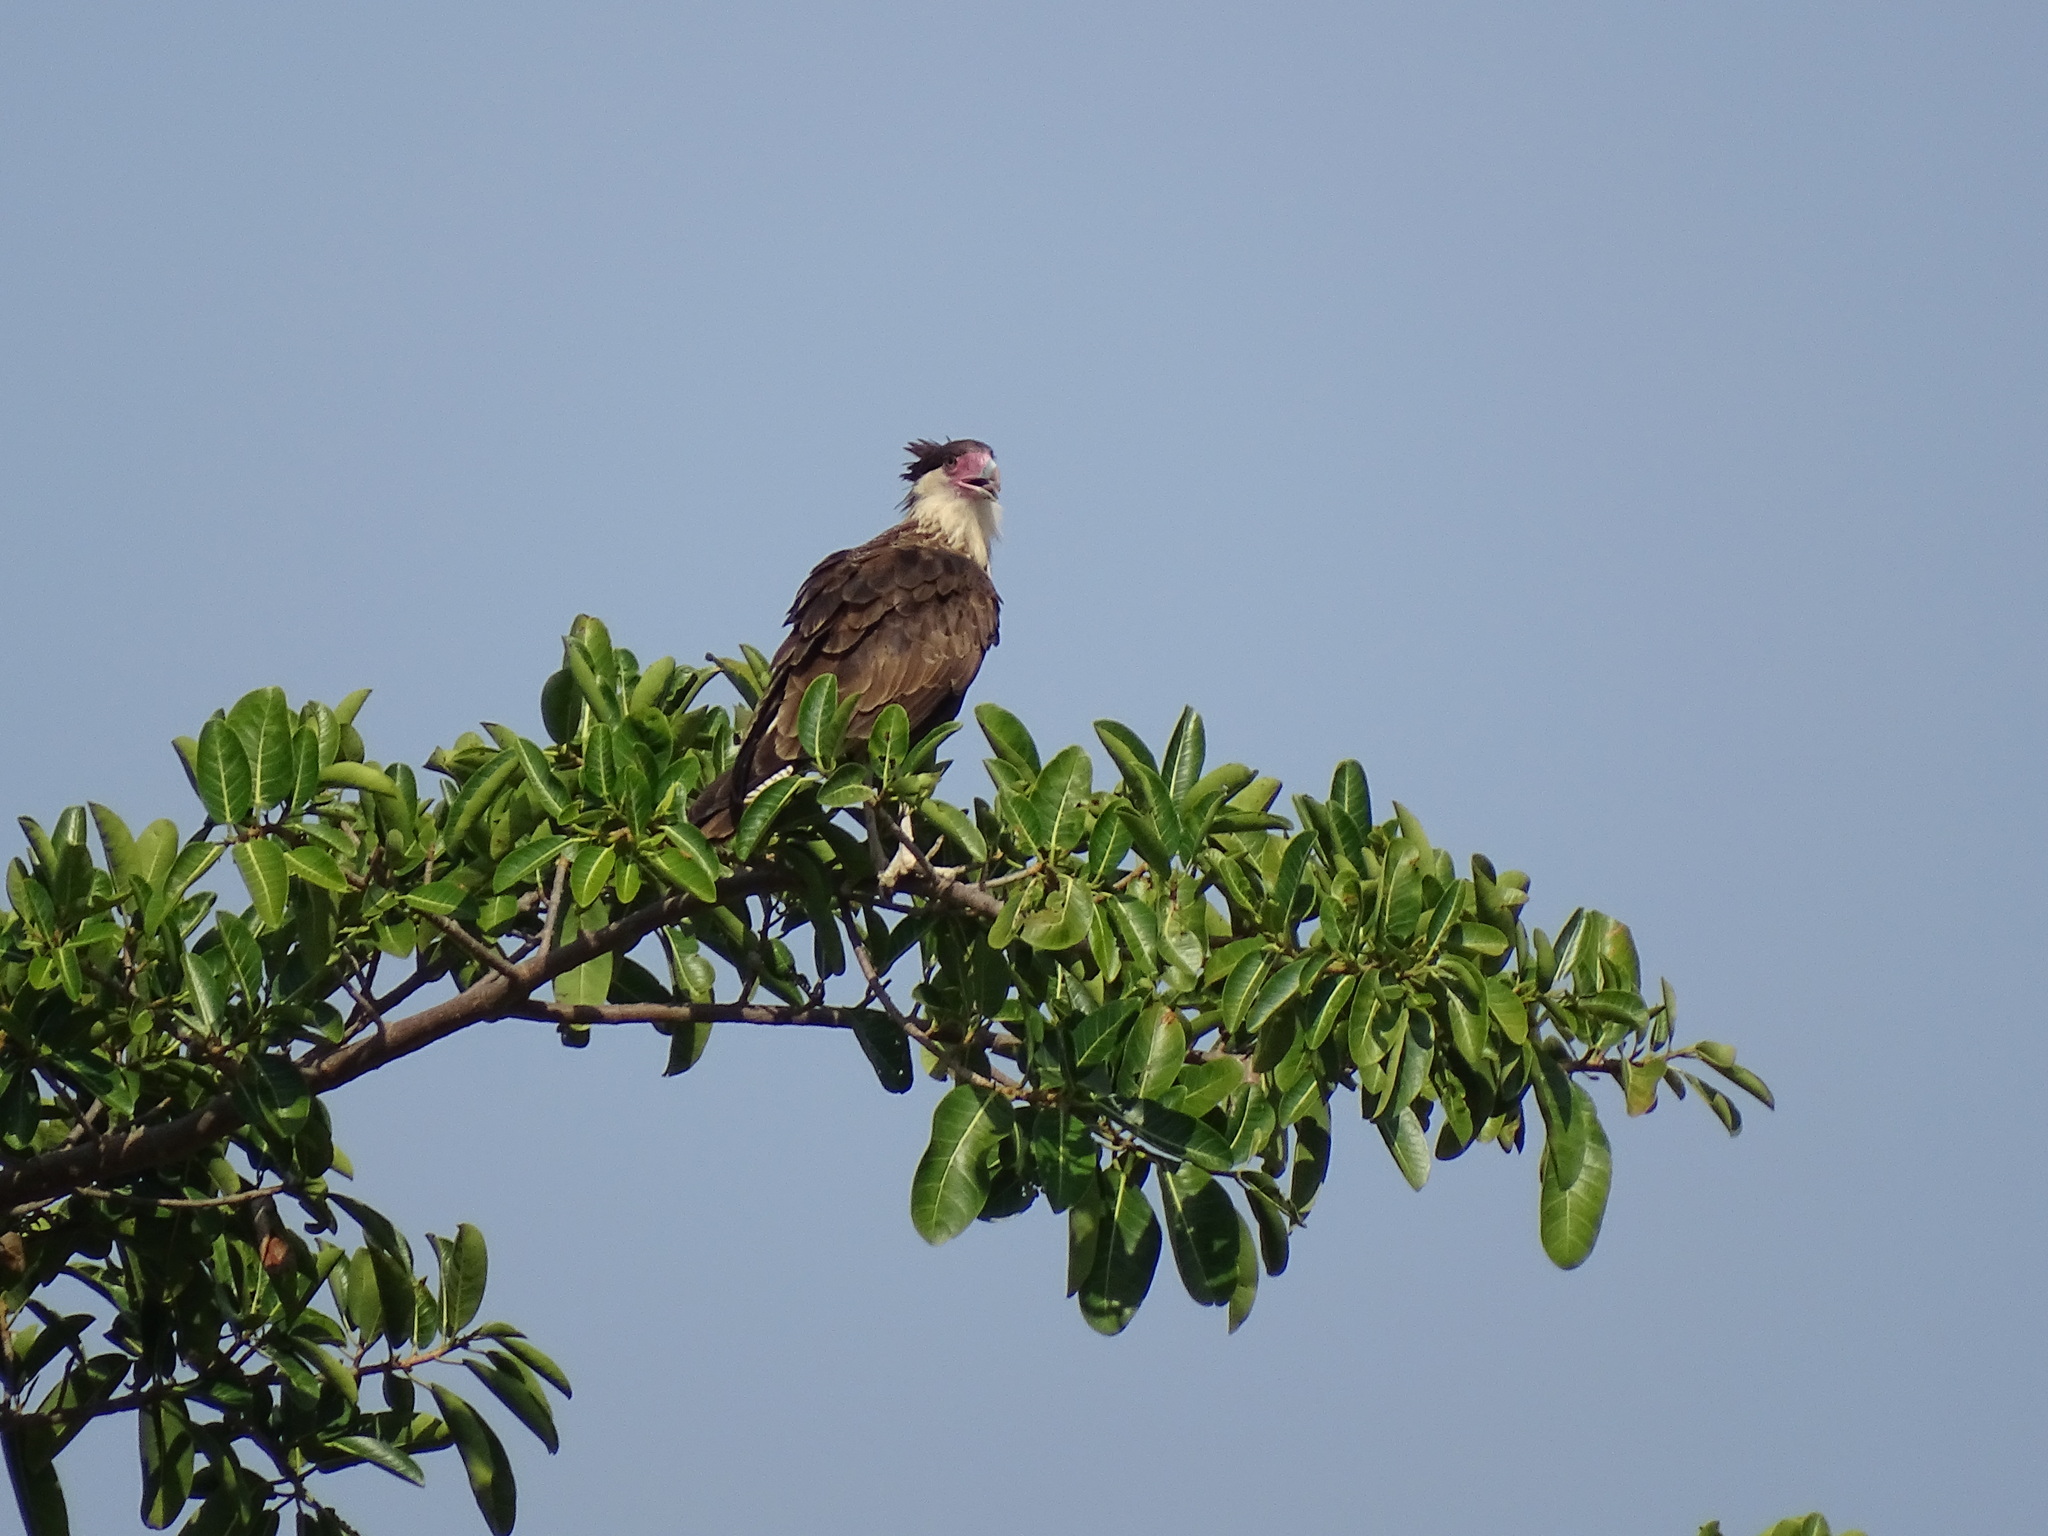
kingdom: Animalia
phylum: Chordata
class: Aves
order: Falconiformes
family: Falconidae
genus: Caracara
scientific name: Caracara plancus
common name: Southern caracara
